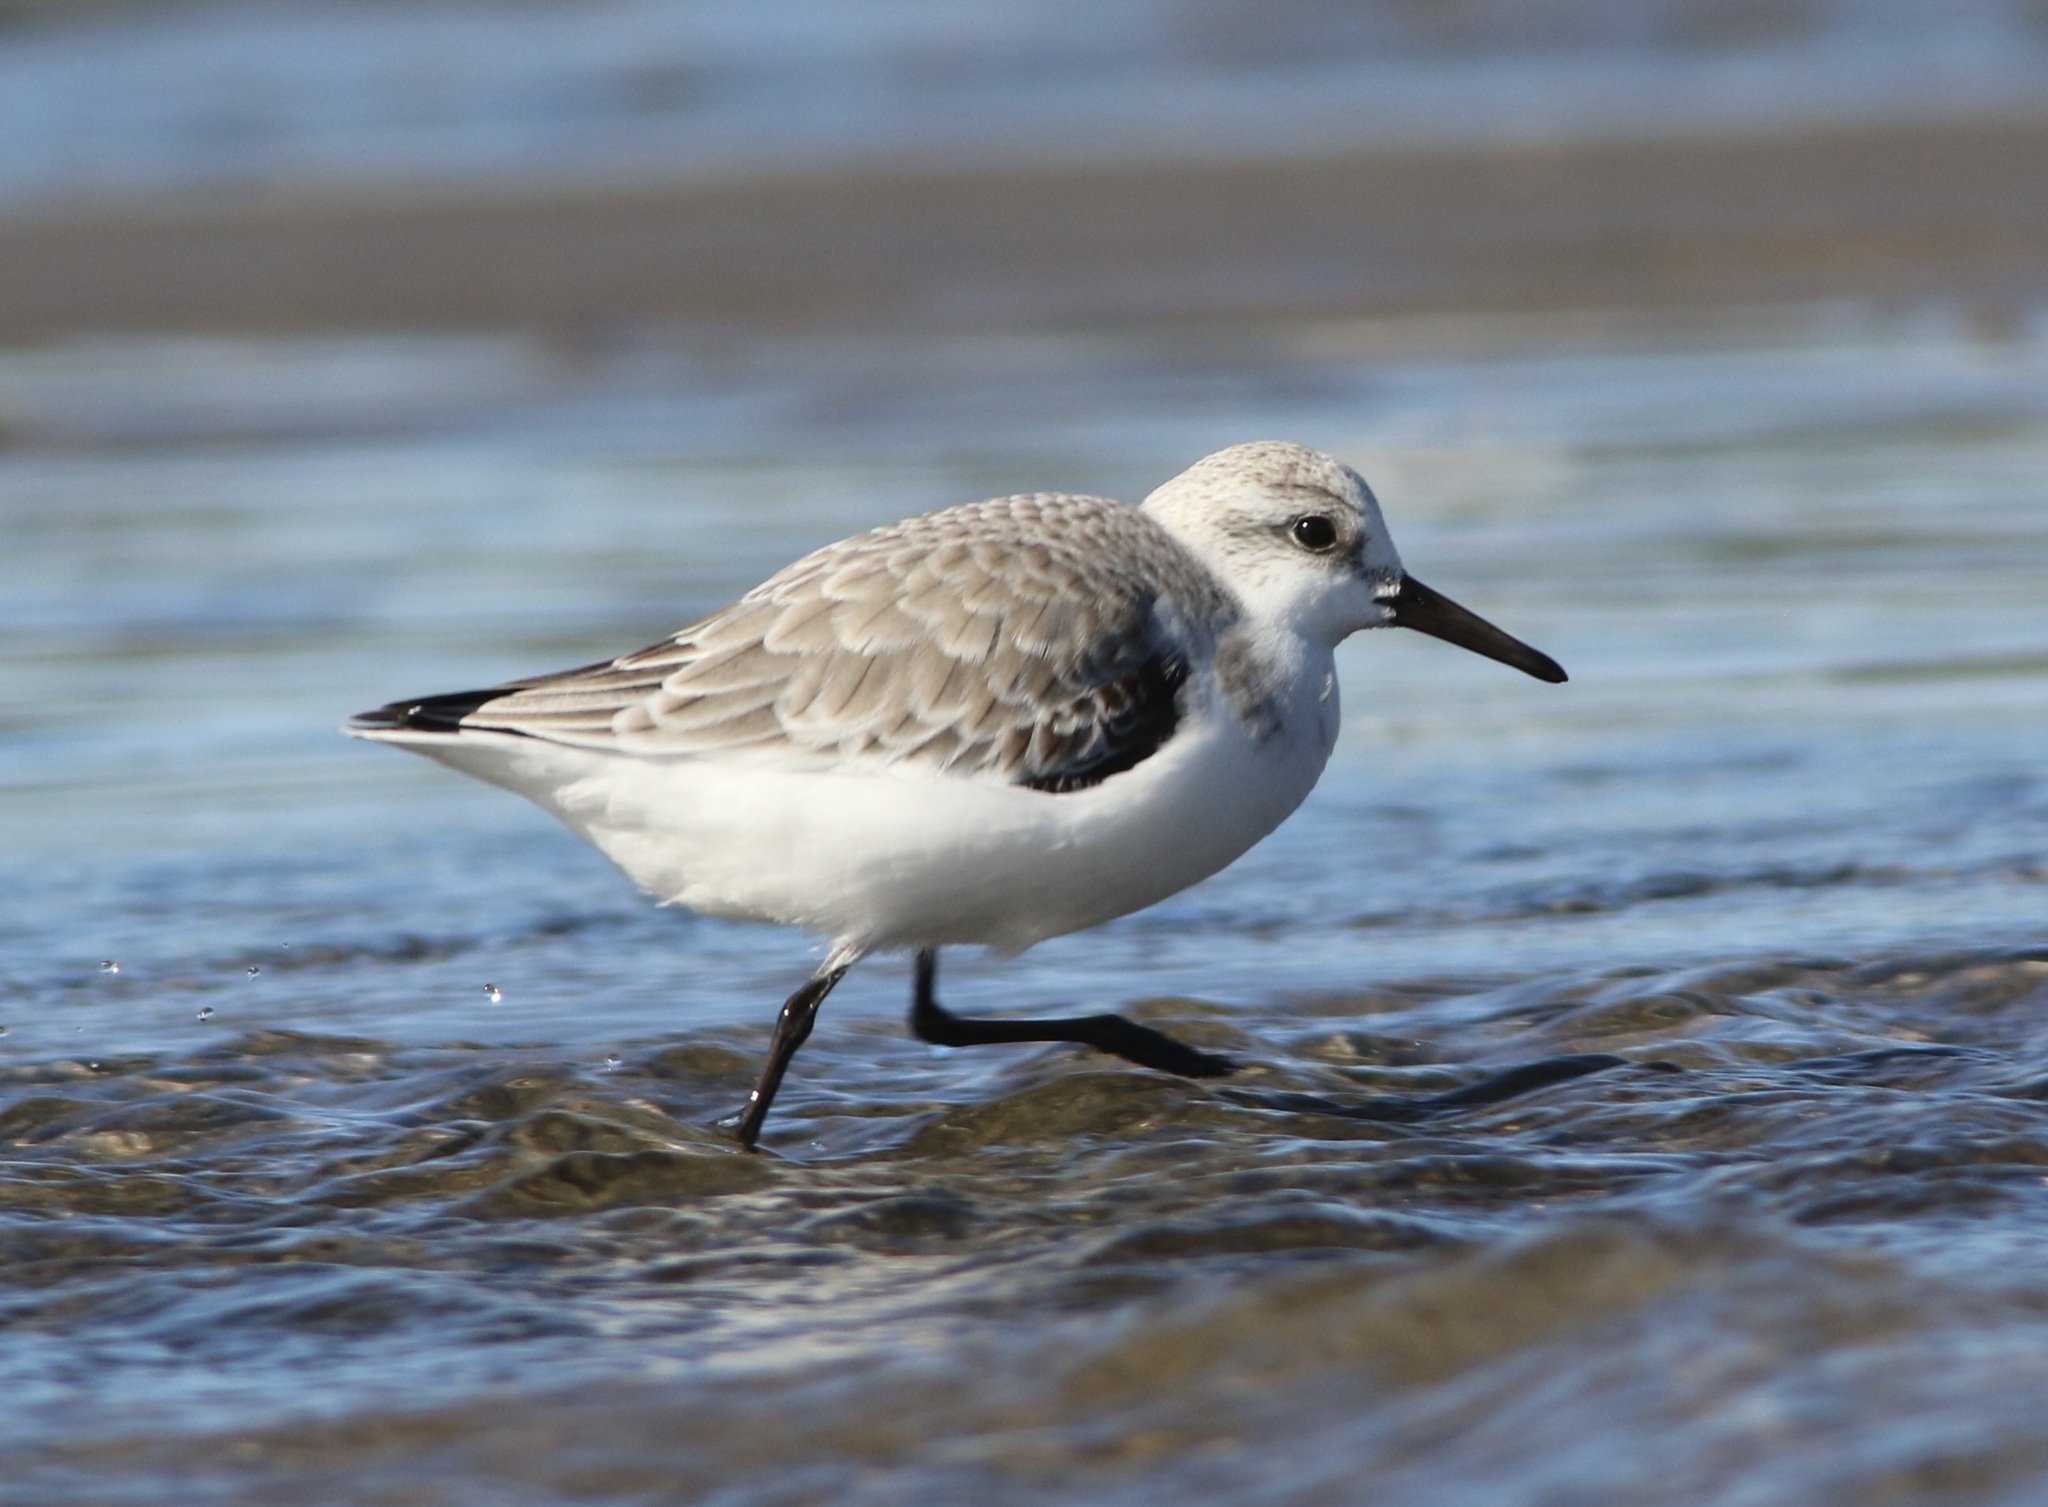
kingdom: Animalia
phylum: Chordata
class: Aves
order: Charadriiformes
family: Scolopacidae
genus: Calidris
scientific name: Calidris alba
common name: Sanderling
